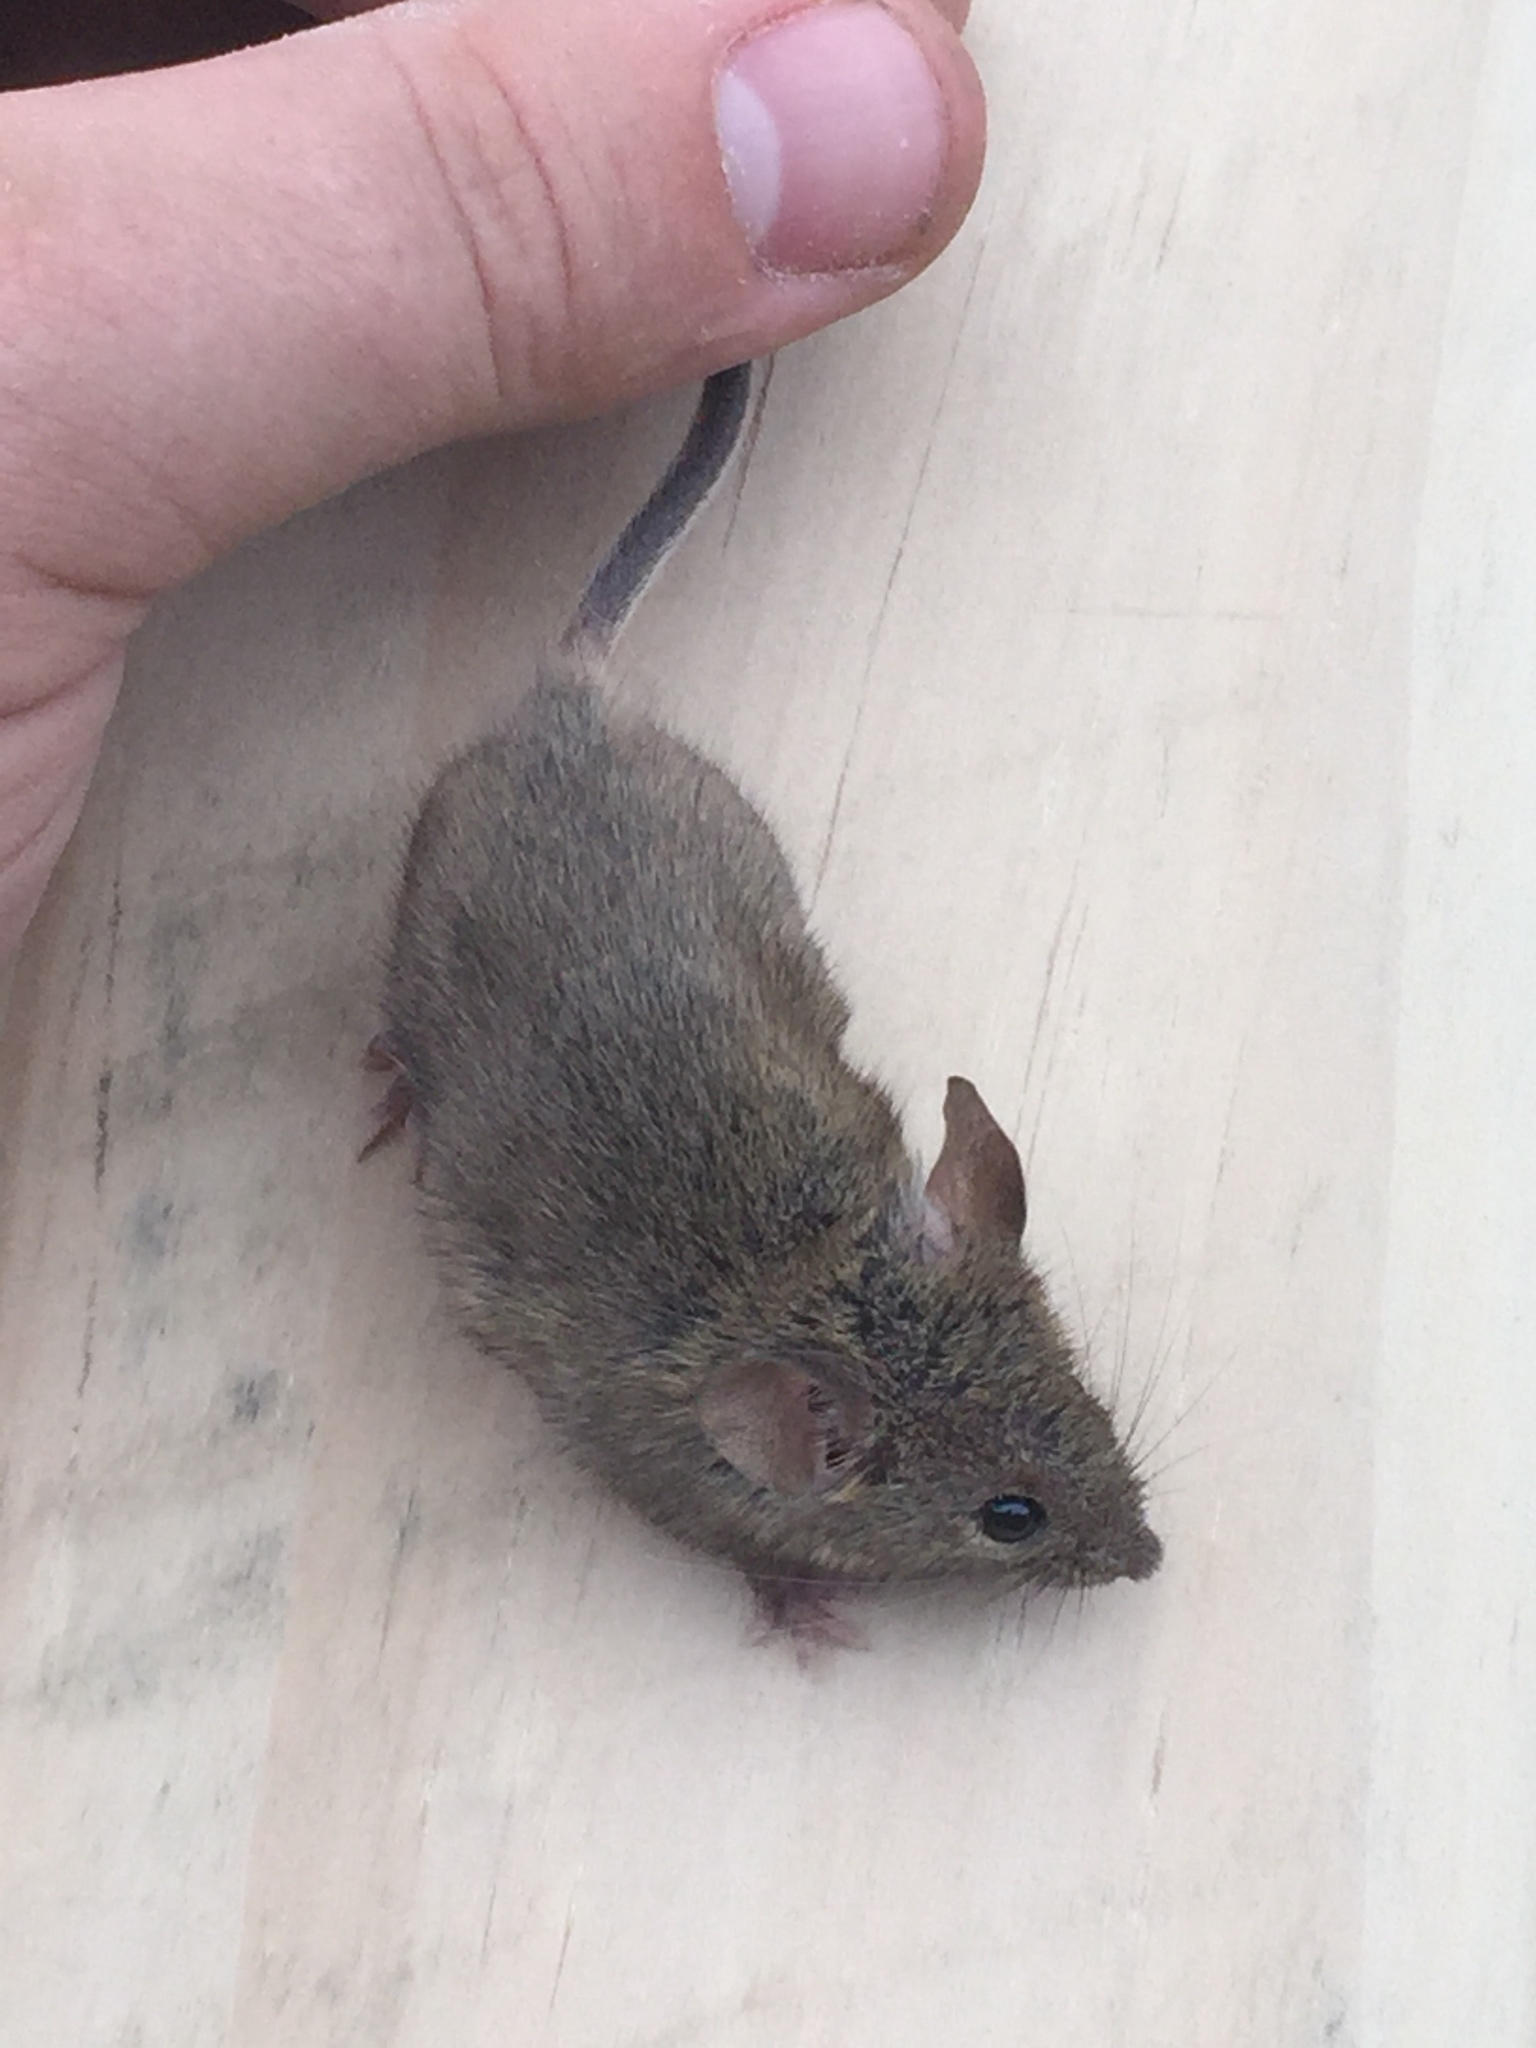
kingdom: Animalia
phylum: Chordata
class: Mammalia
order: Rodentia
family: Muridae
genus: Mus
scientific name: Mus musculus
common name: House mouse
